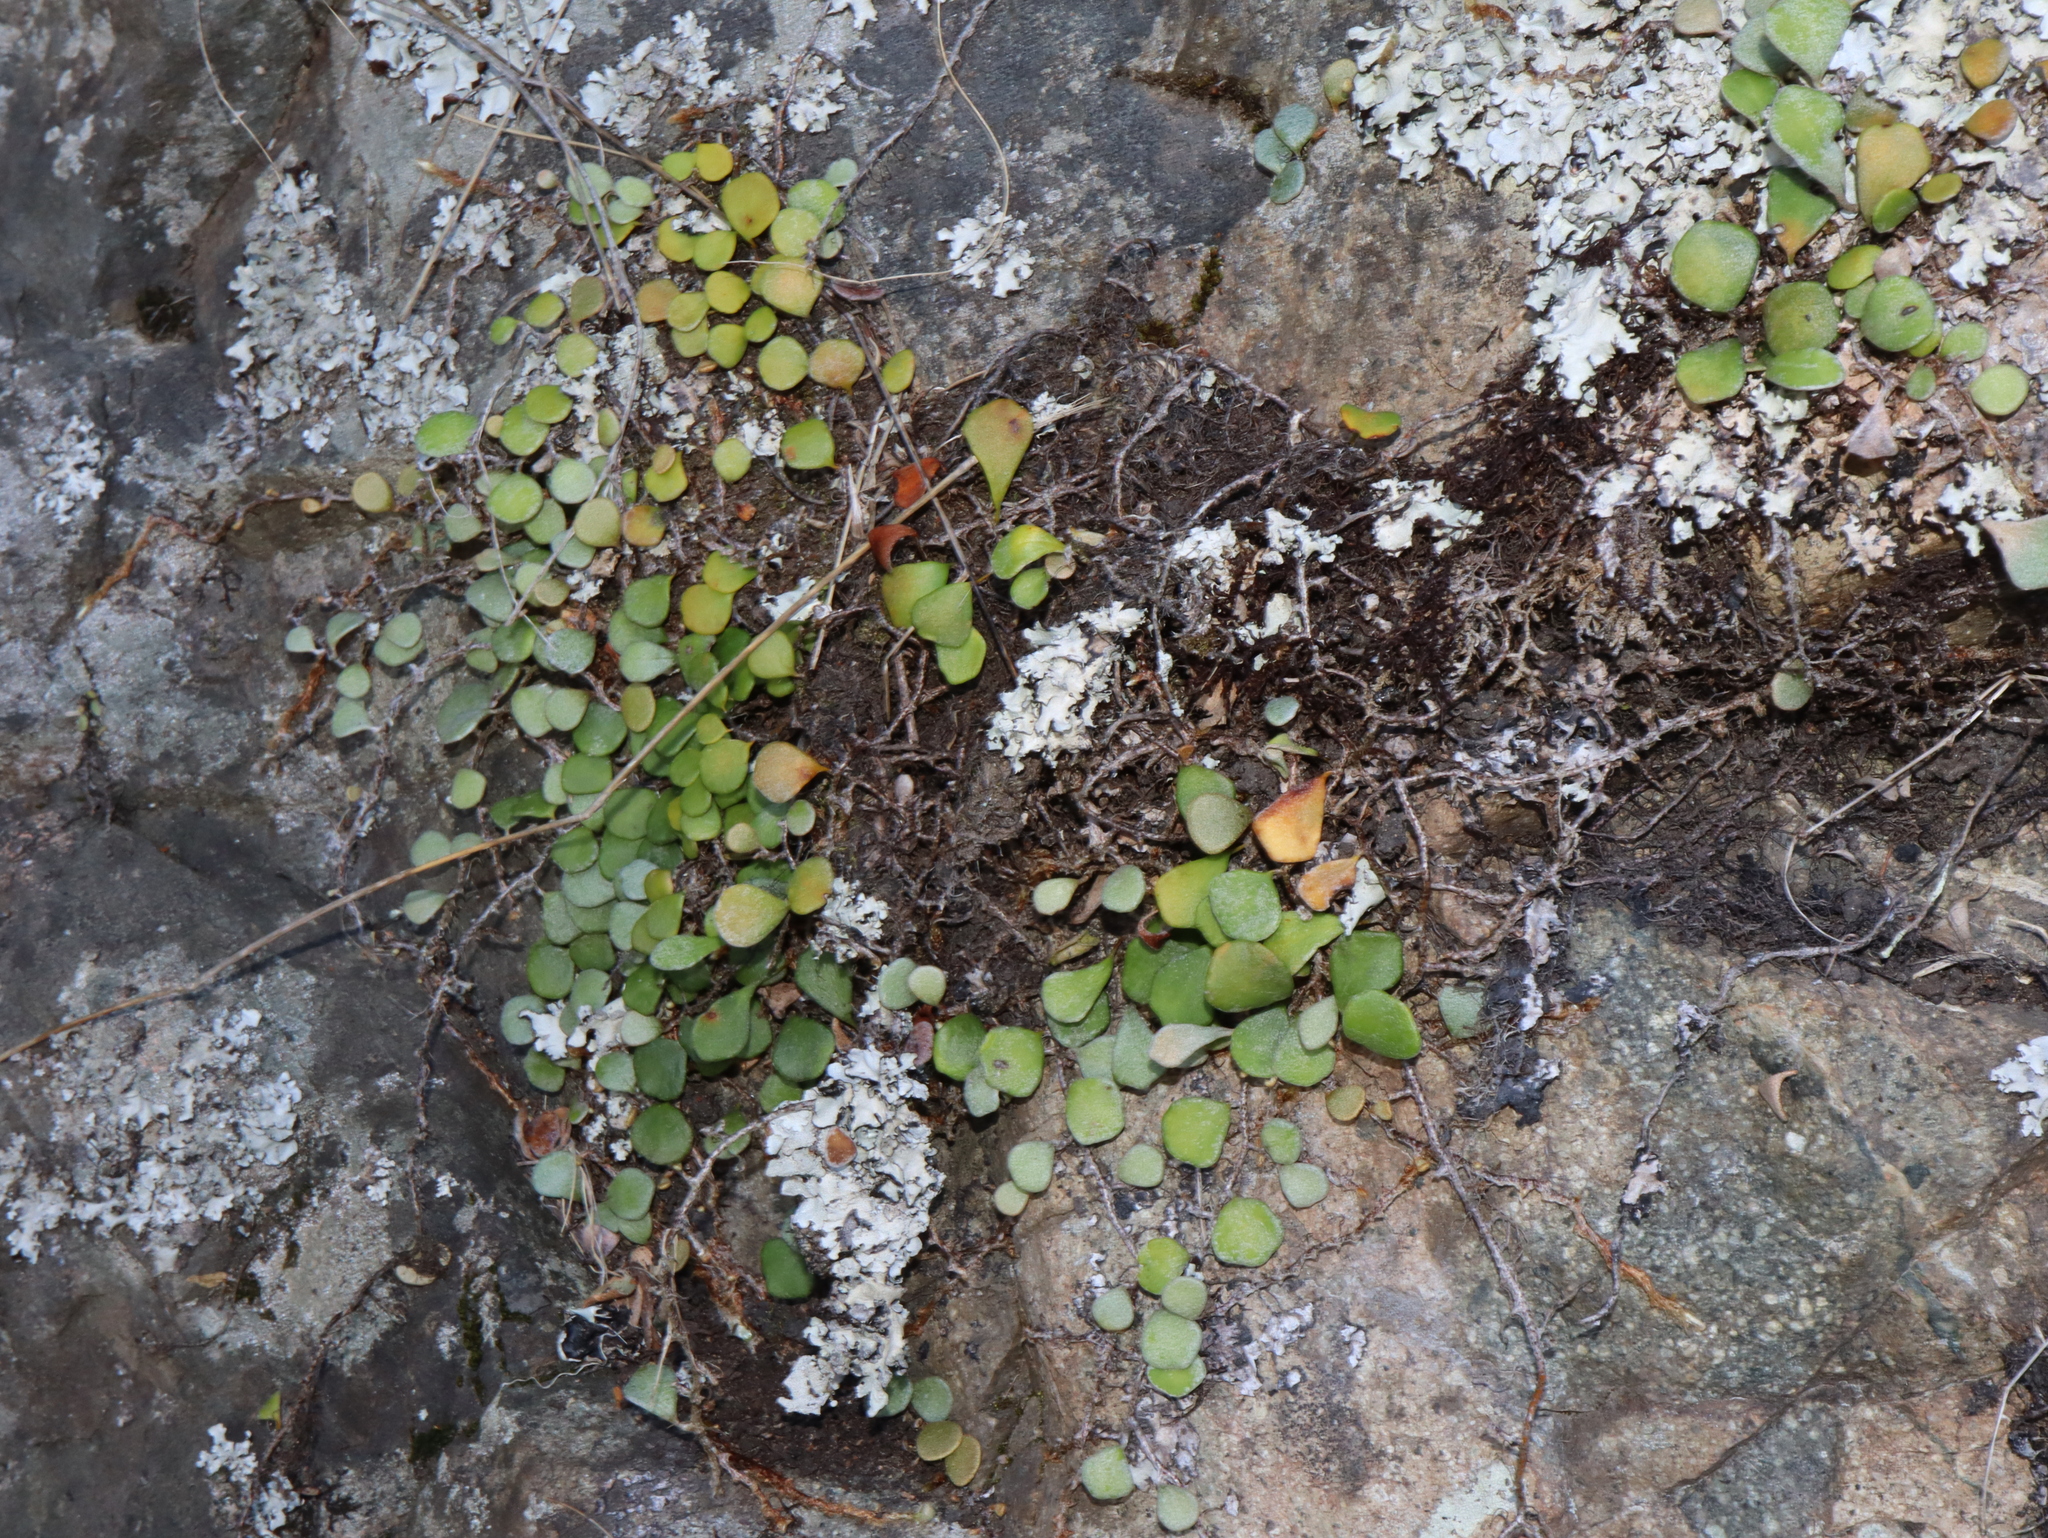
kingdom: Plantae
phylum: Tracheophyta
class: Polypodiopsida
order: Polypodiales
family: Polypodiaceae
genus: Pyrrosia
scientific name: Pyrrosia rupestris
